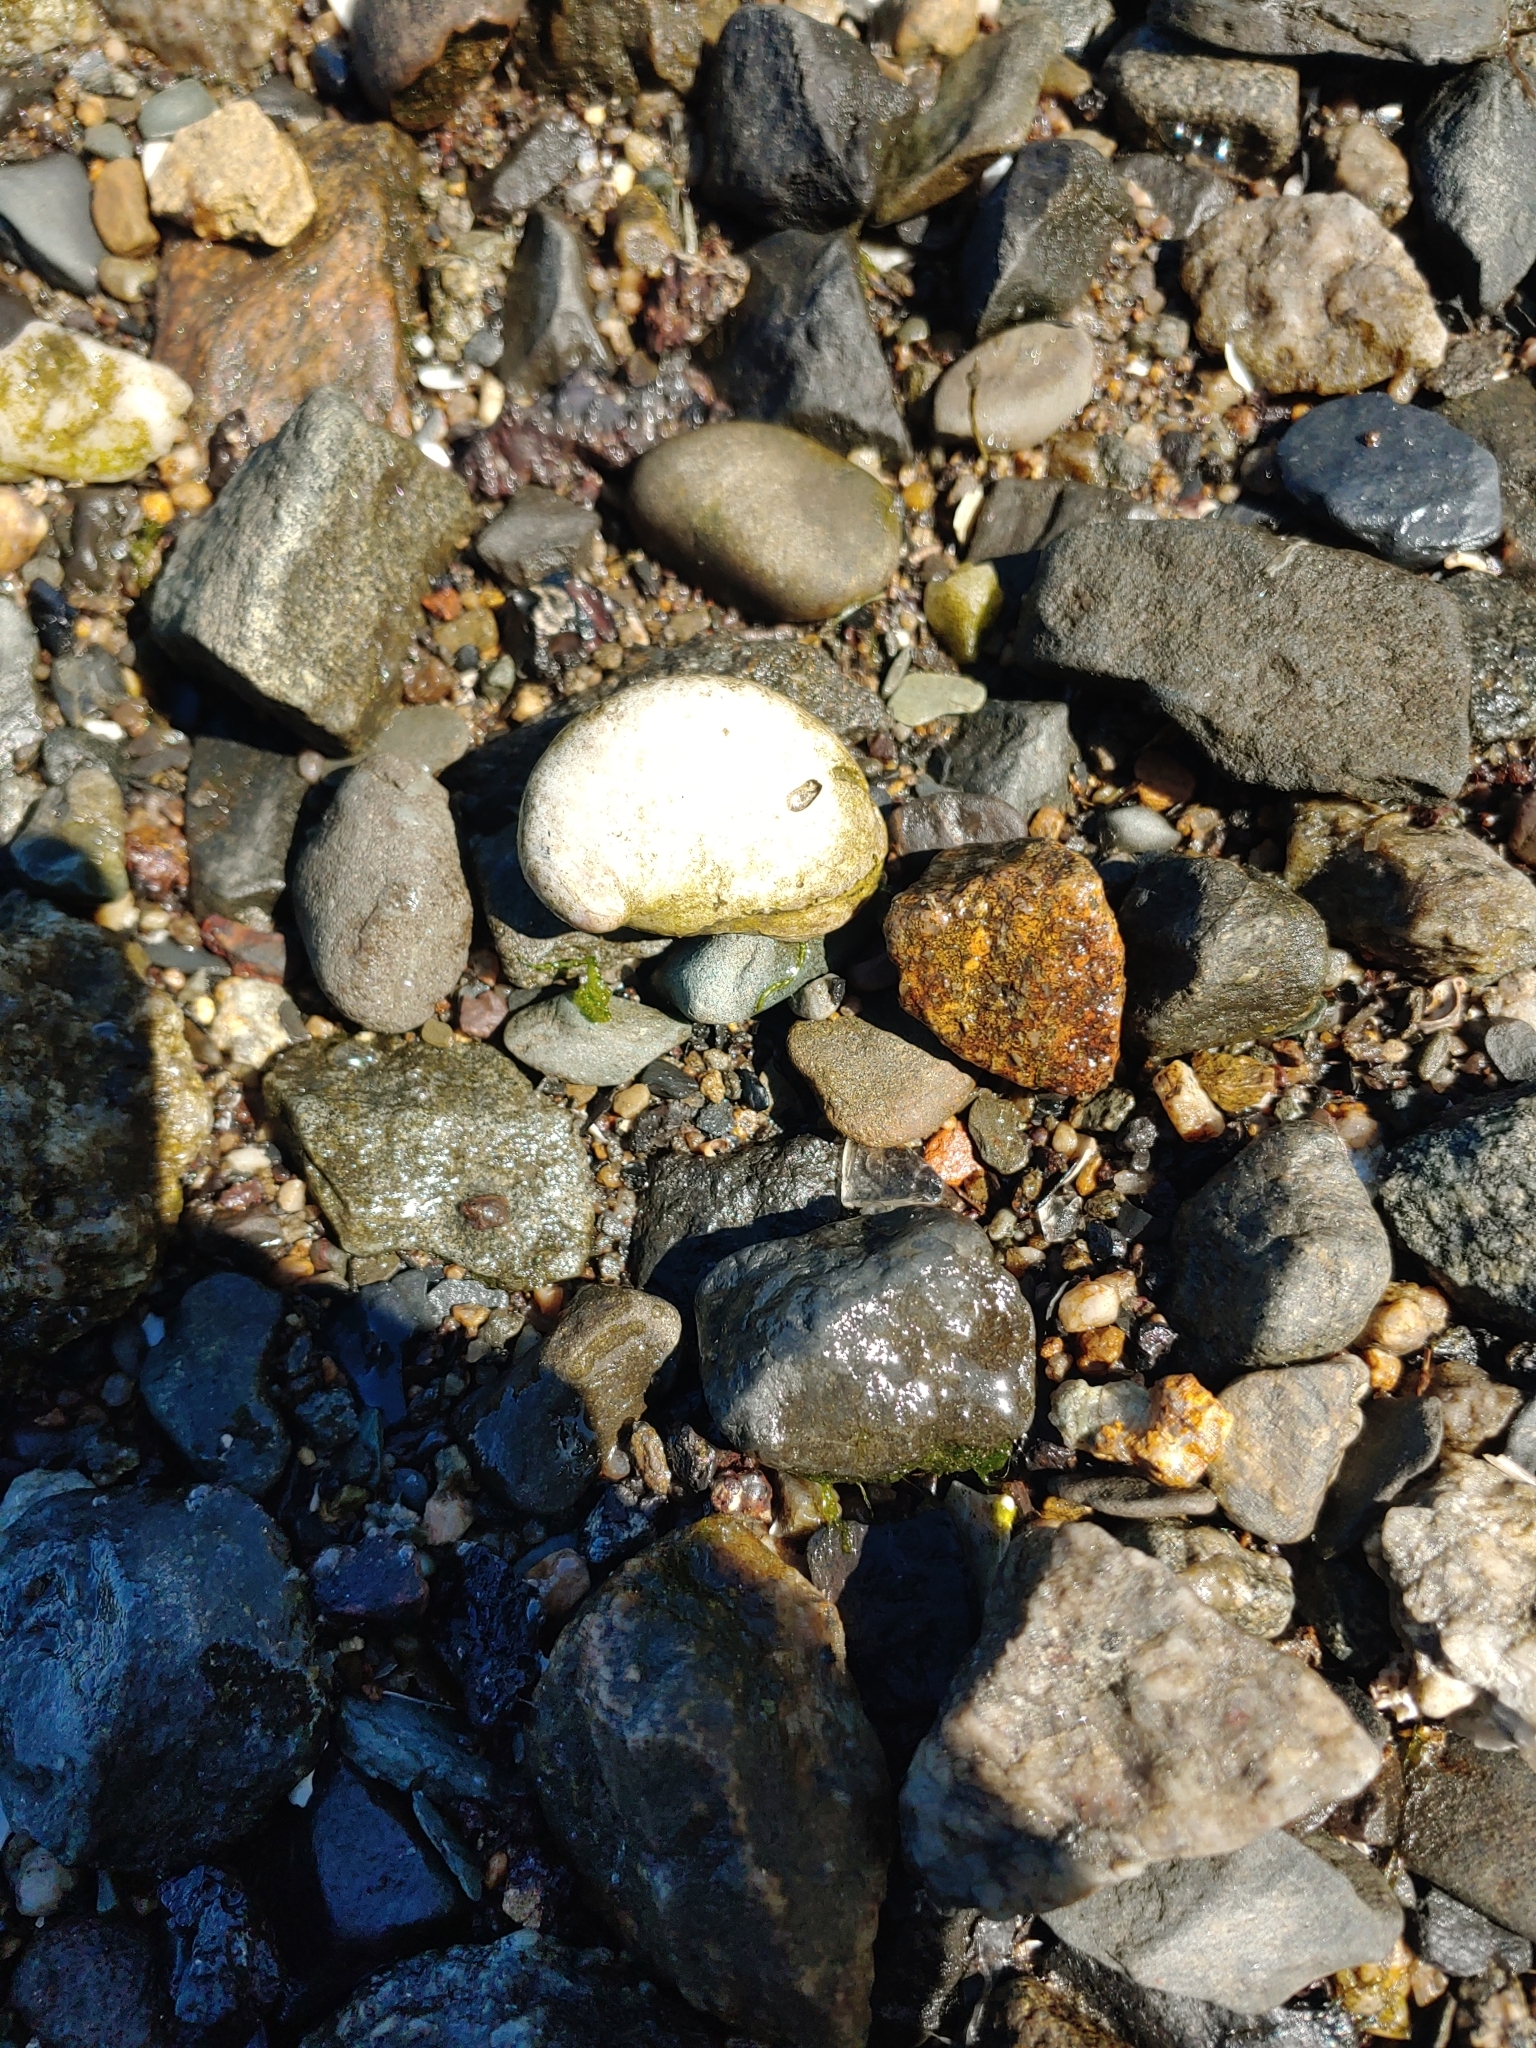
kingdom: Animalia
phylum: Mollusca
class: Gastropoda
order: Littorinimorpha
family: Calyptraeidae
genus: Crepidula
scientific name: Crepidula fornicata
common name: Slipper limpet
